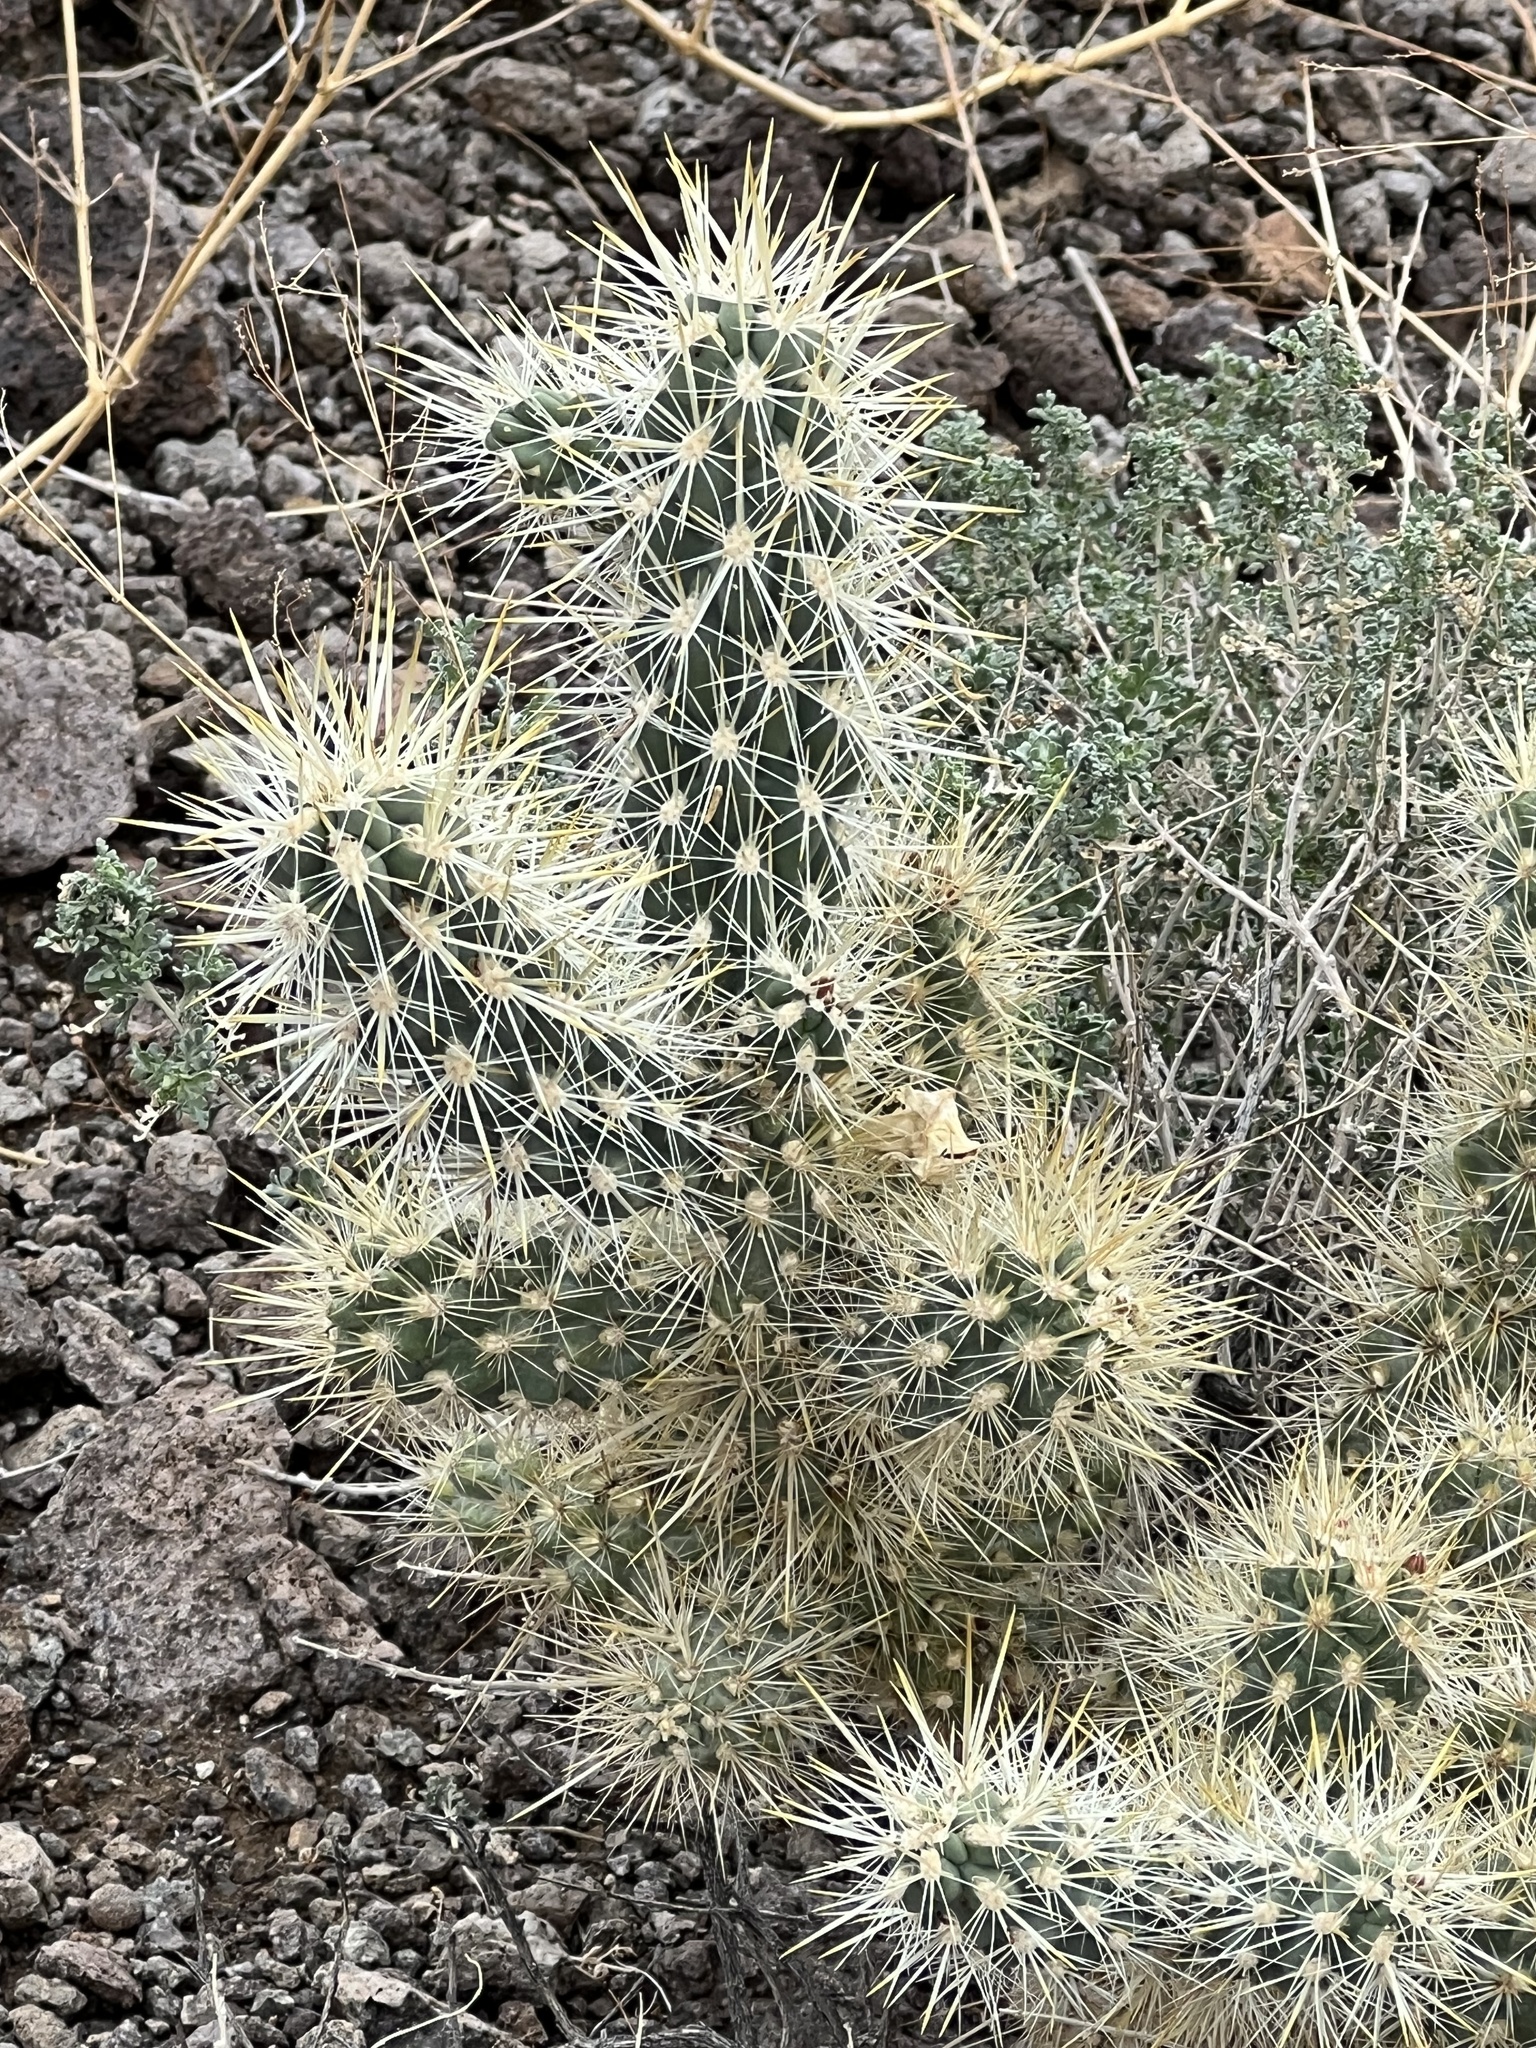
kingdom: Plantae
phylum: Tracheophyta
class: Magnoliopsida
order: Caryophyllales
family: Cactaceae
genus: Cylindropuntia
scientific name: Cylindropuntia echinocarpa
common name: Ground cholla
